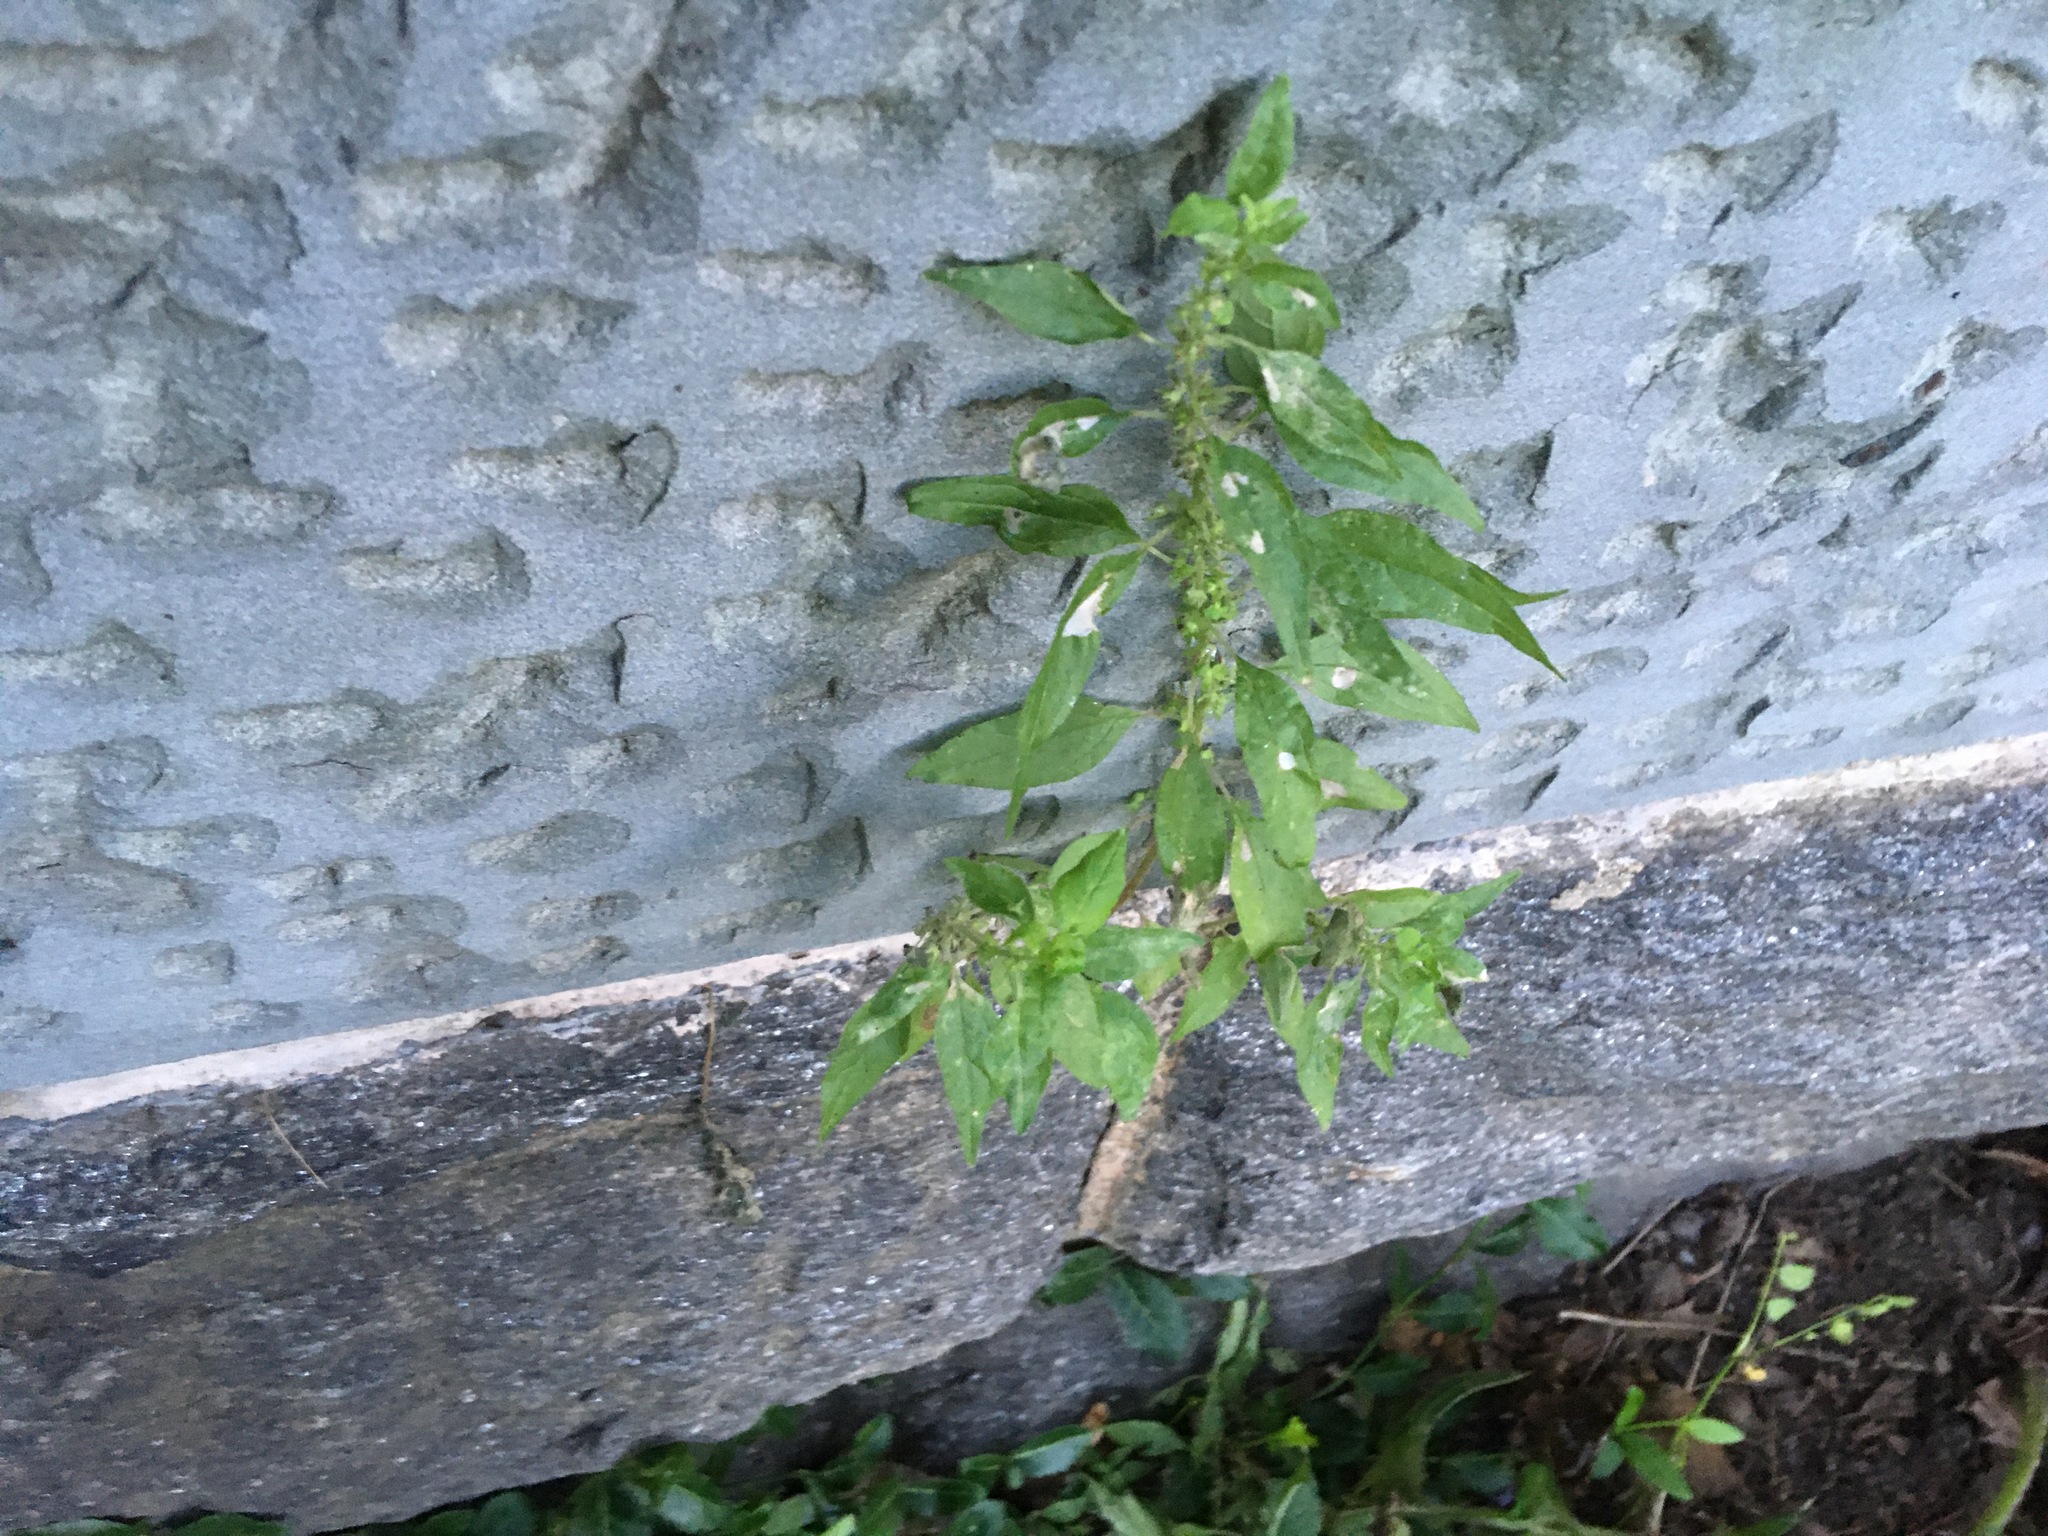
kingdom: Plantae
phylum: Tracheophyta
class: Magnoliopsida
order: Rosales
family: Urticaceae
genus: Parietaria
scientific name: Parietaria pensylvanica
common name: Pennsylvania pellitory
